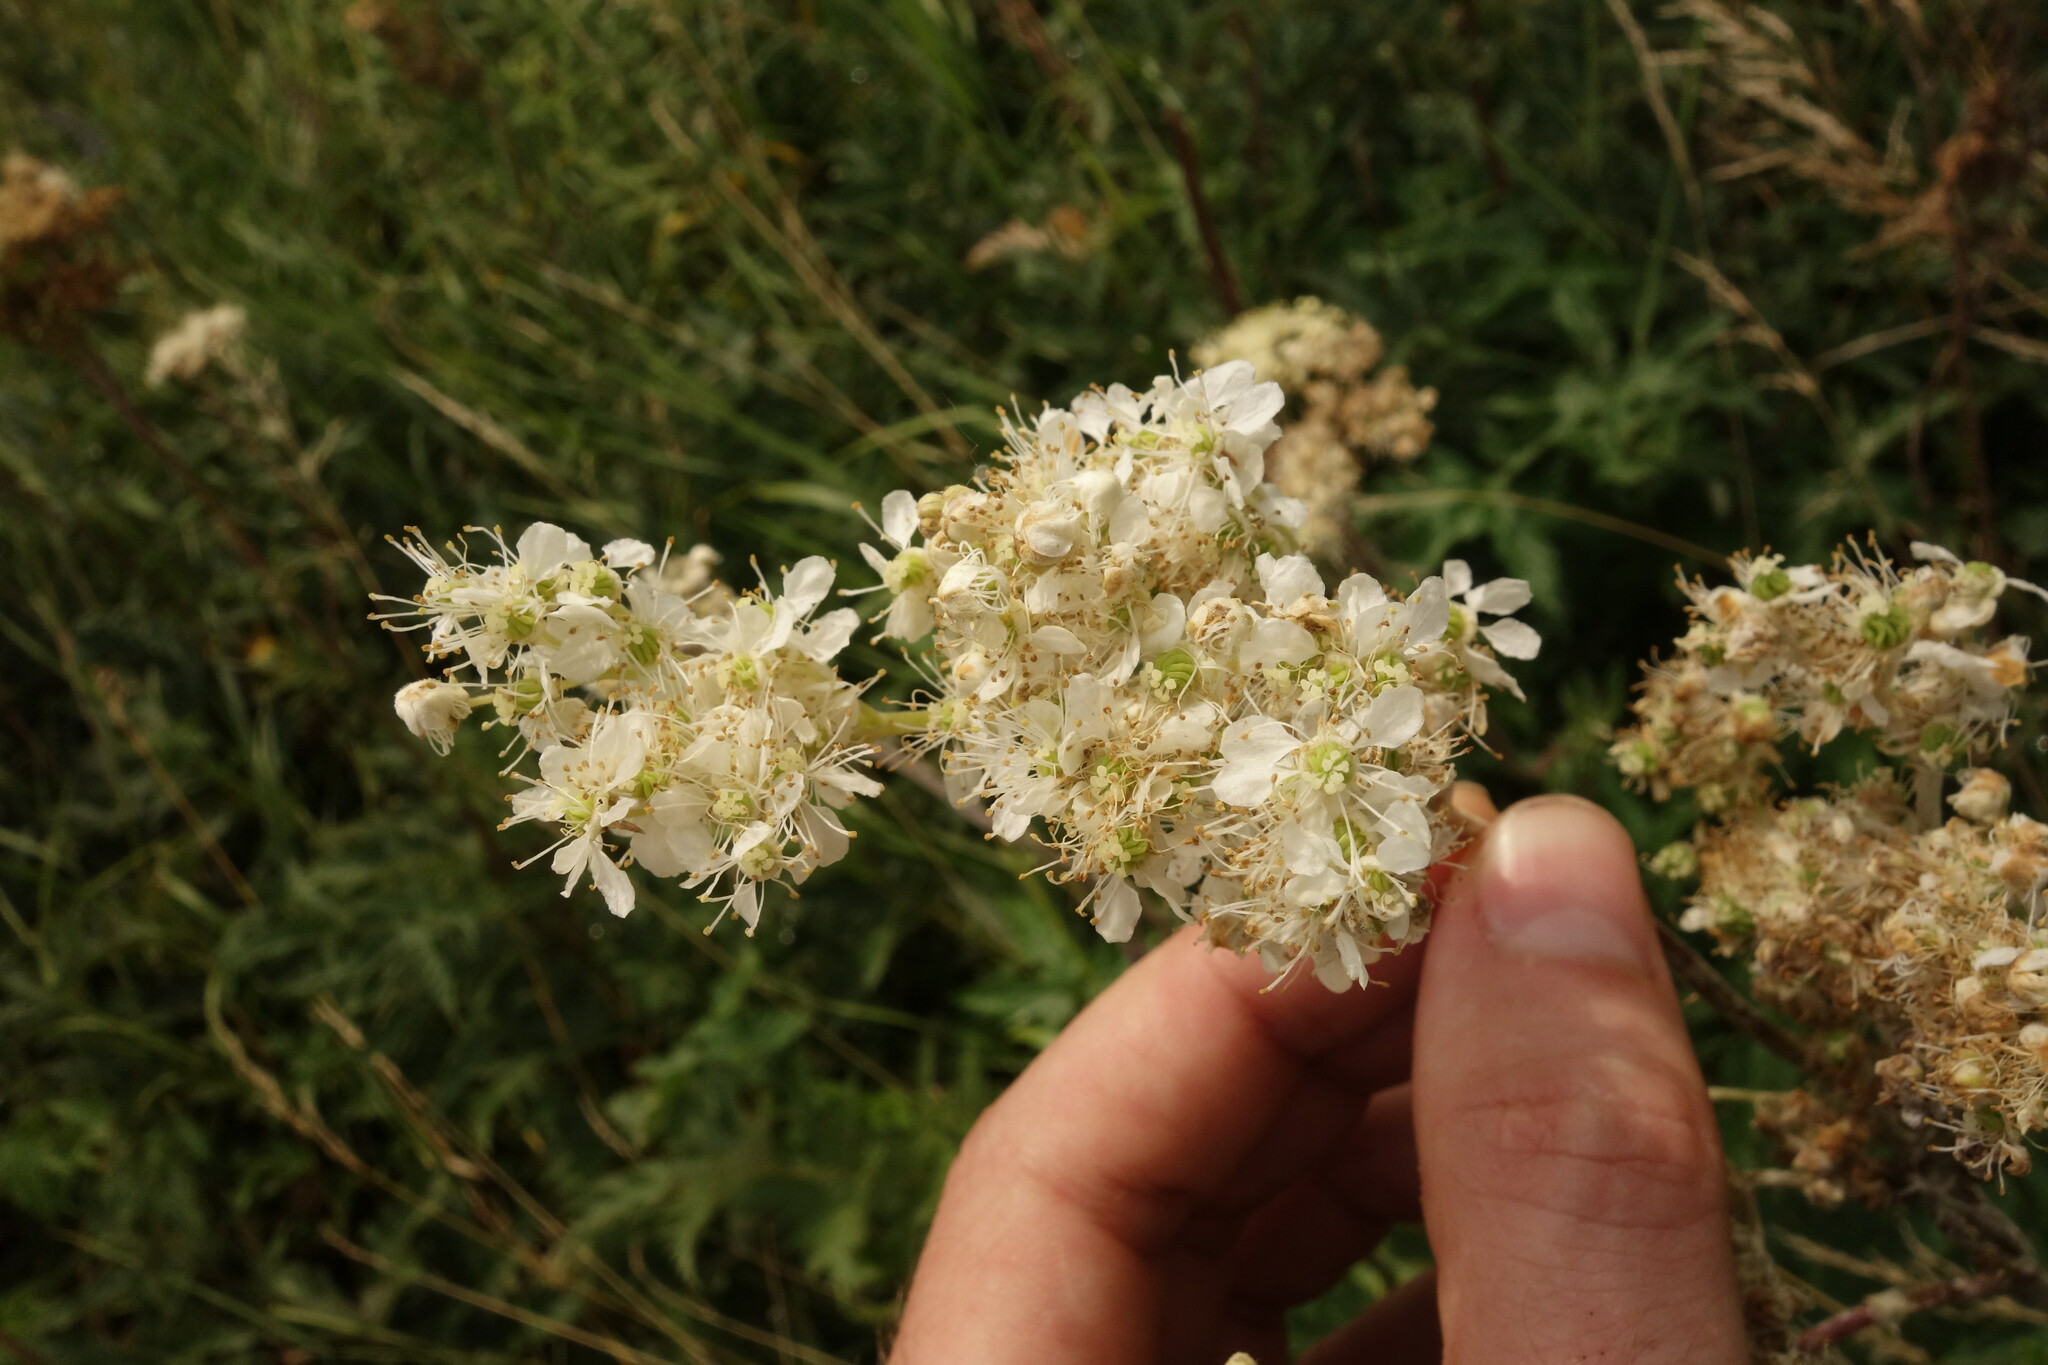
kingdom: Plantae
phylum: Tracheophyta
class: Magnoliopsida
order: Rosales
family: Rosaceae
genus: Filipendula
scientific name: Filipendula ulmaria
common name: Meadowsweet
